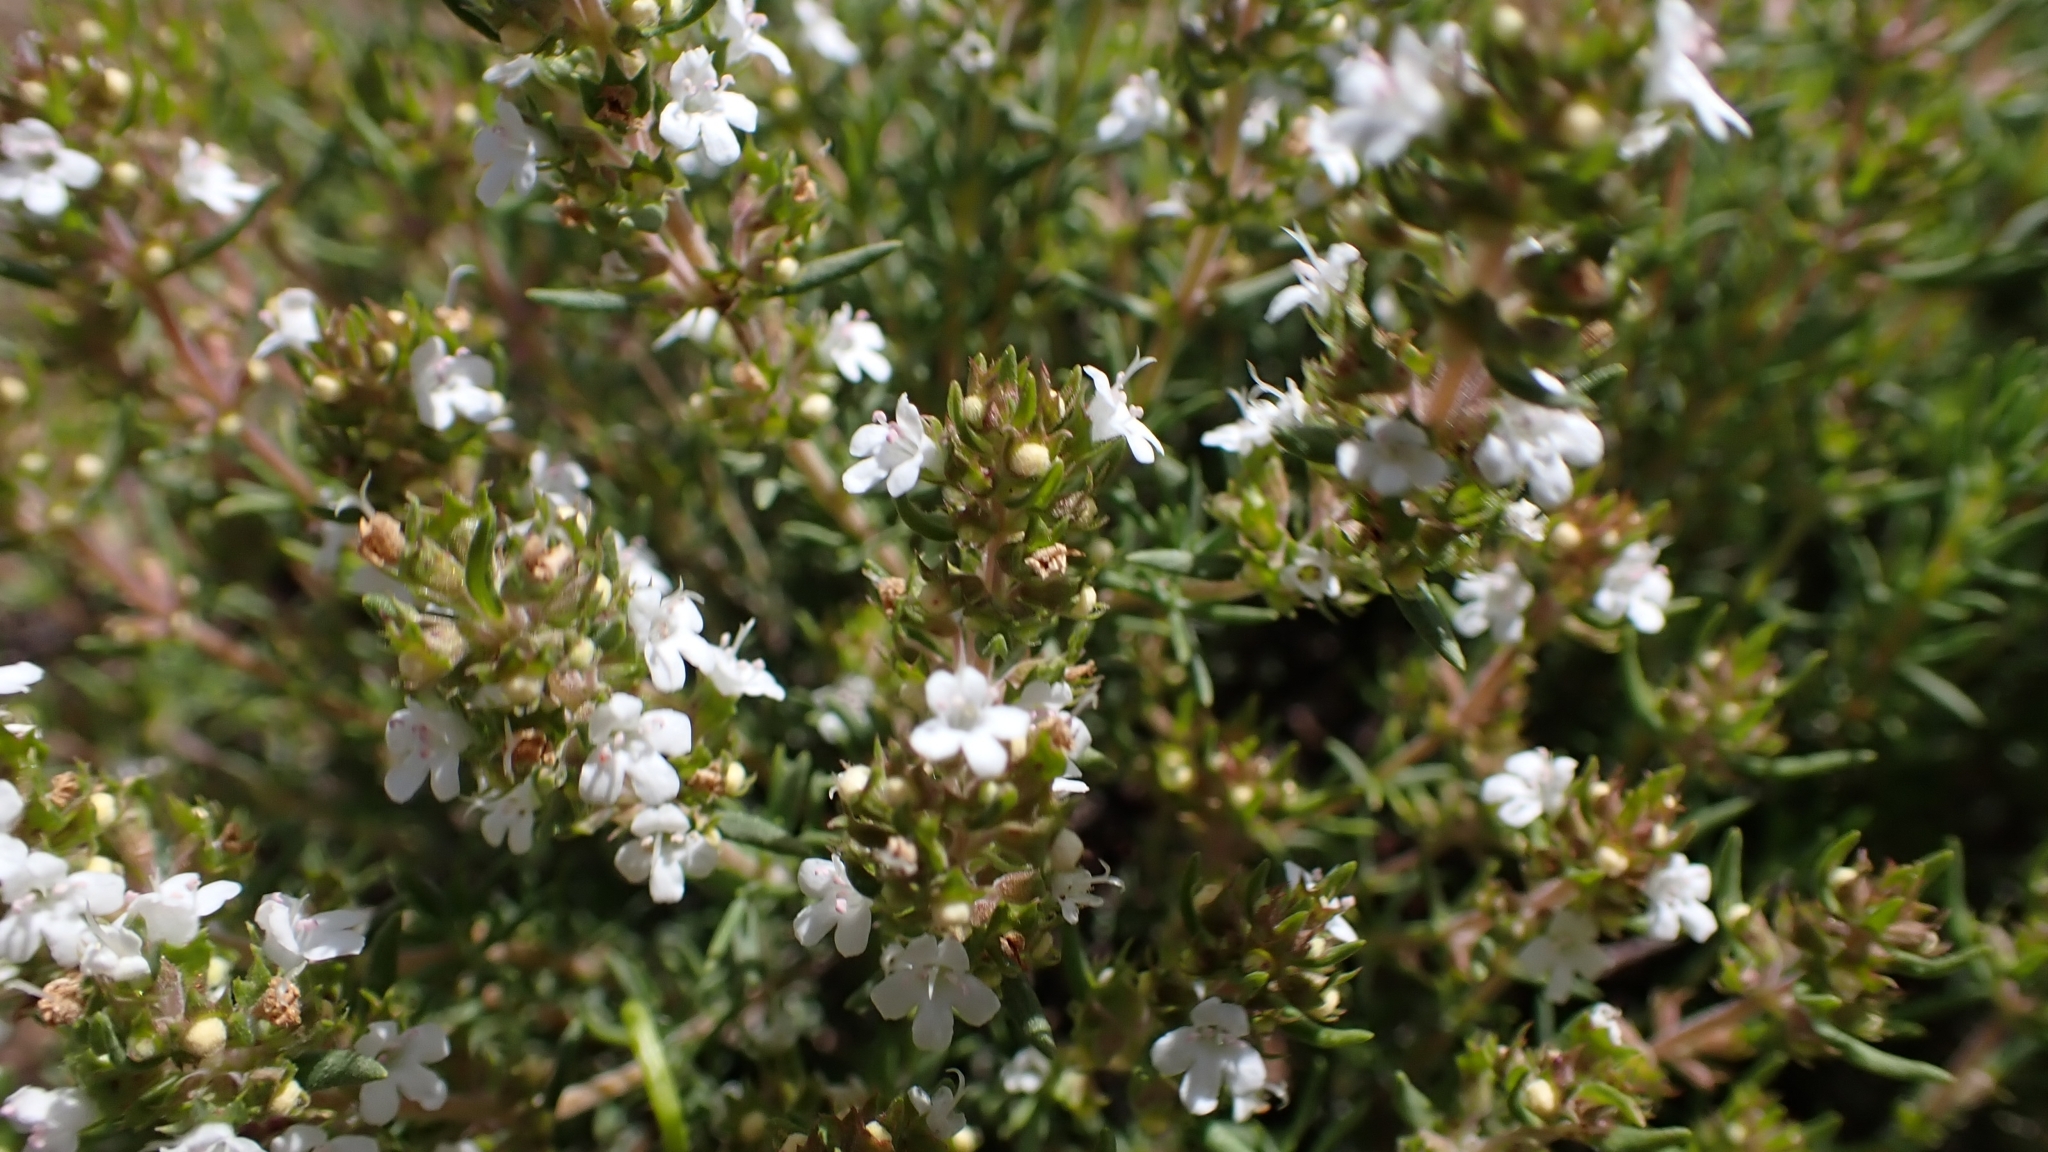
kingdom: Plantae
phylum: Tracheophyta
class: Magnoliopsida
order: Lamiales
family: Lamiaceae
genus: Thymus
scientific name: Thymus zygis
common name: White thyme
